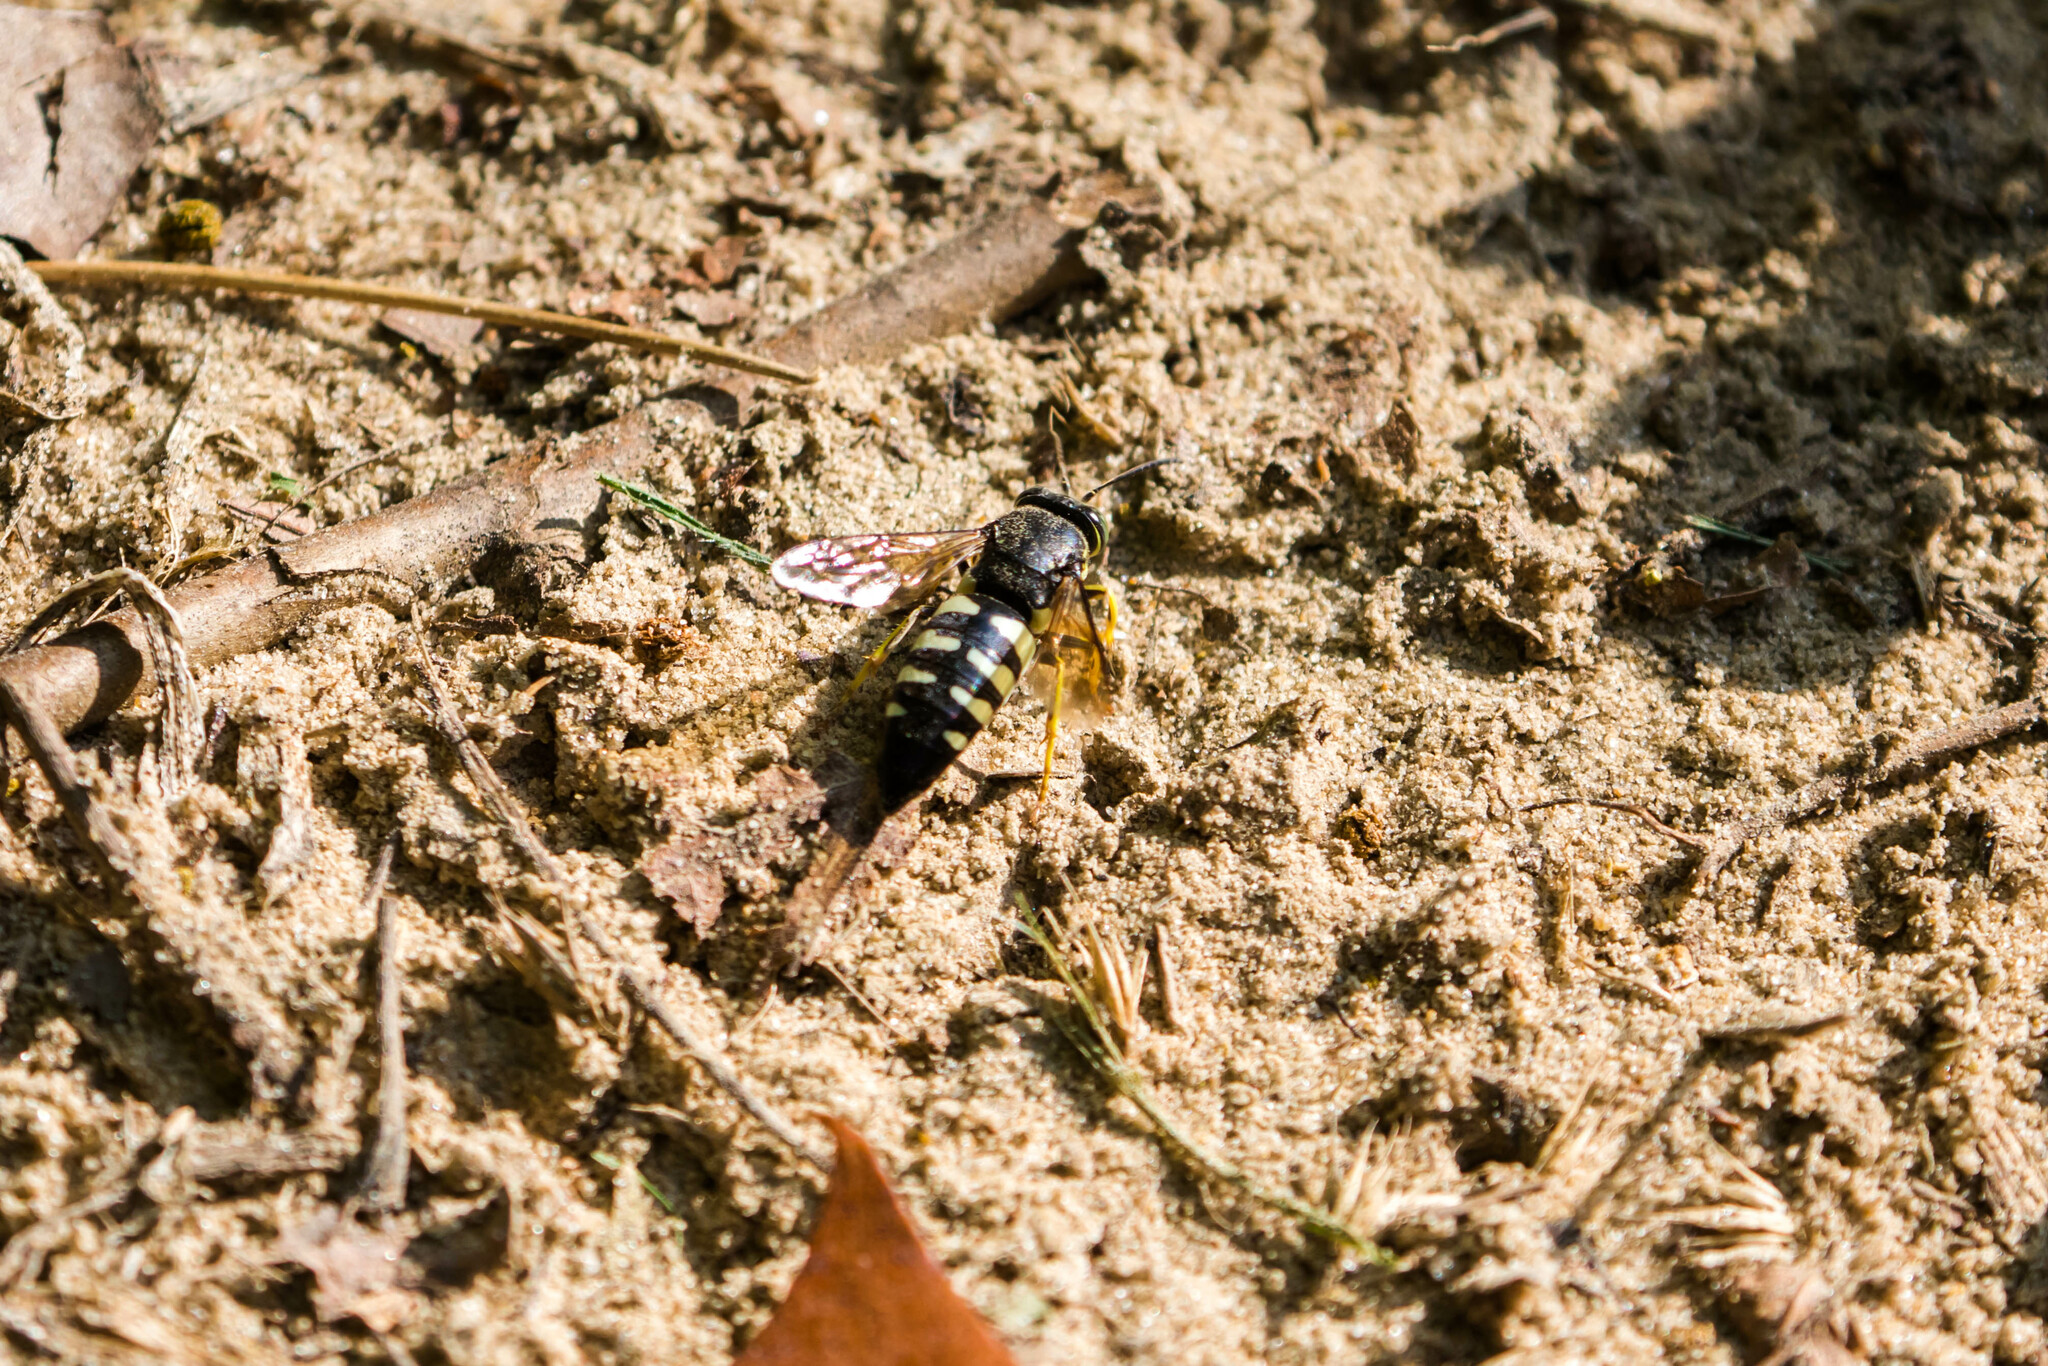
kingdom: Animalia
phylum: Arthropoda
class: Insecta
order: Hymenoptera
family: Crabronidae
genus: Bicyrtes
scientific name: Bicyrtes quadrifasciatus
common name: Four-banded stink bug hunter wasp
